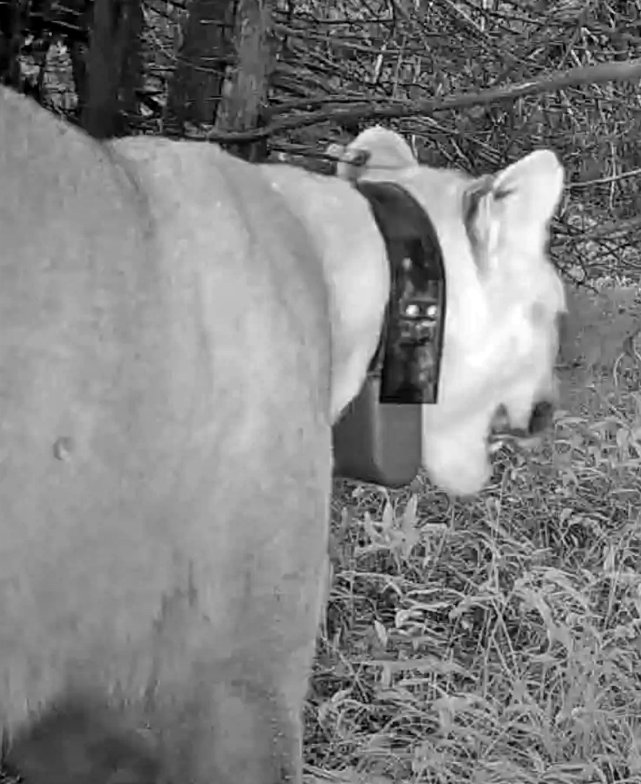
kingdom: Animalia
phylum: Chordata
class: Mammalia
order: Carnivora
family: Felidae
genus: Puma
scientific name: Puma concolor
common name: Puma
